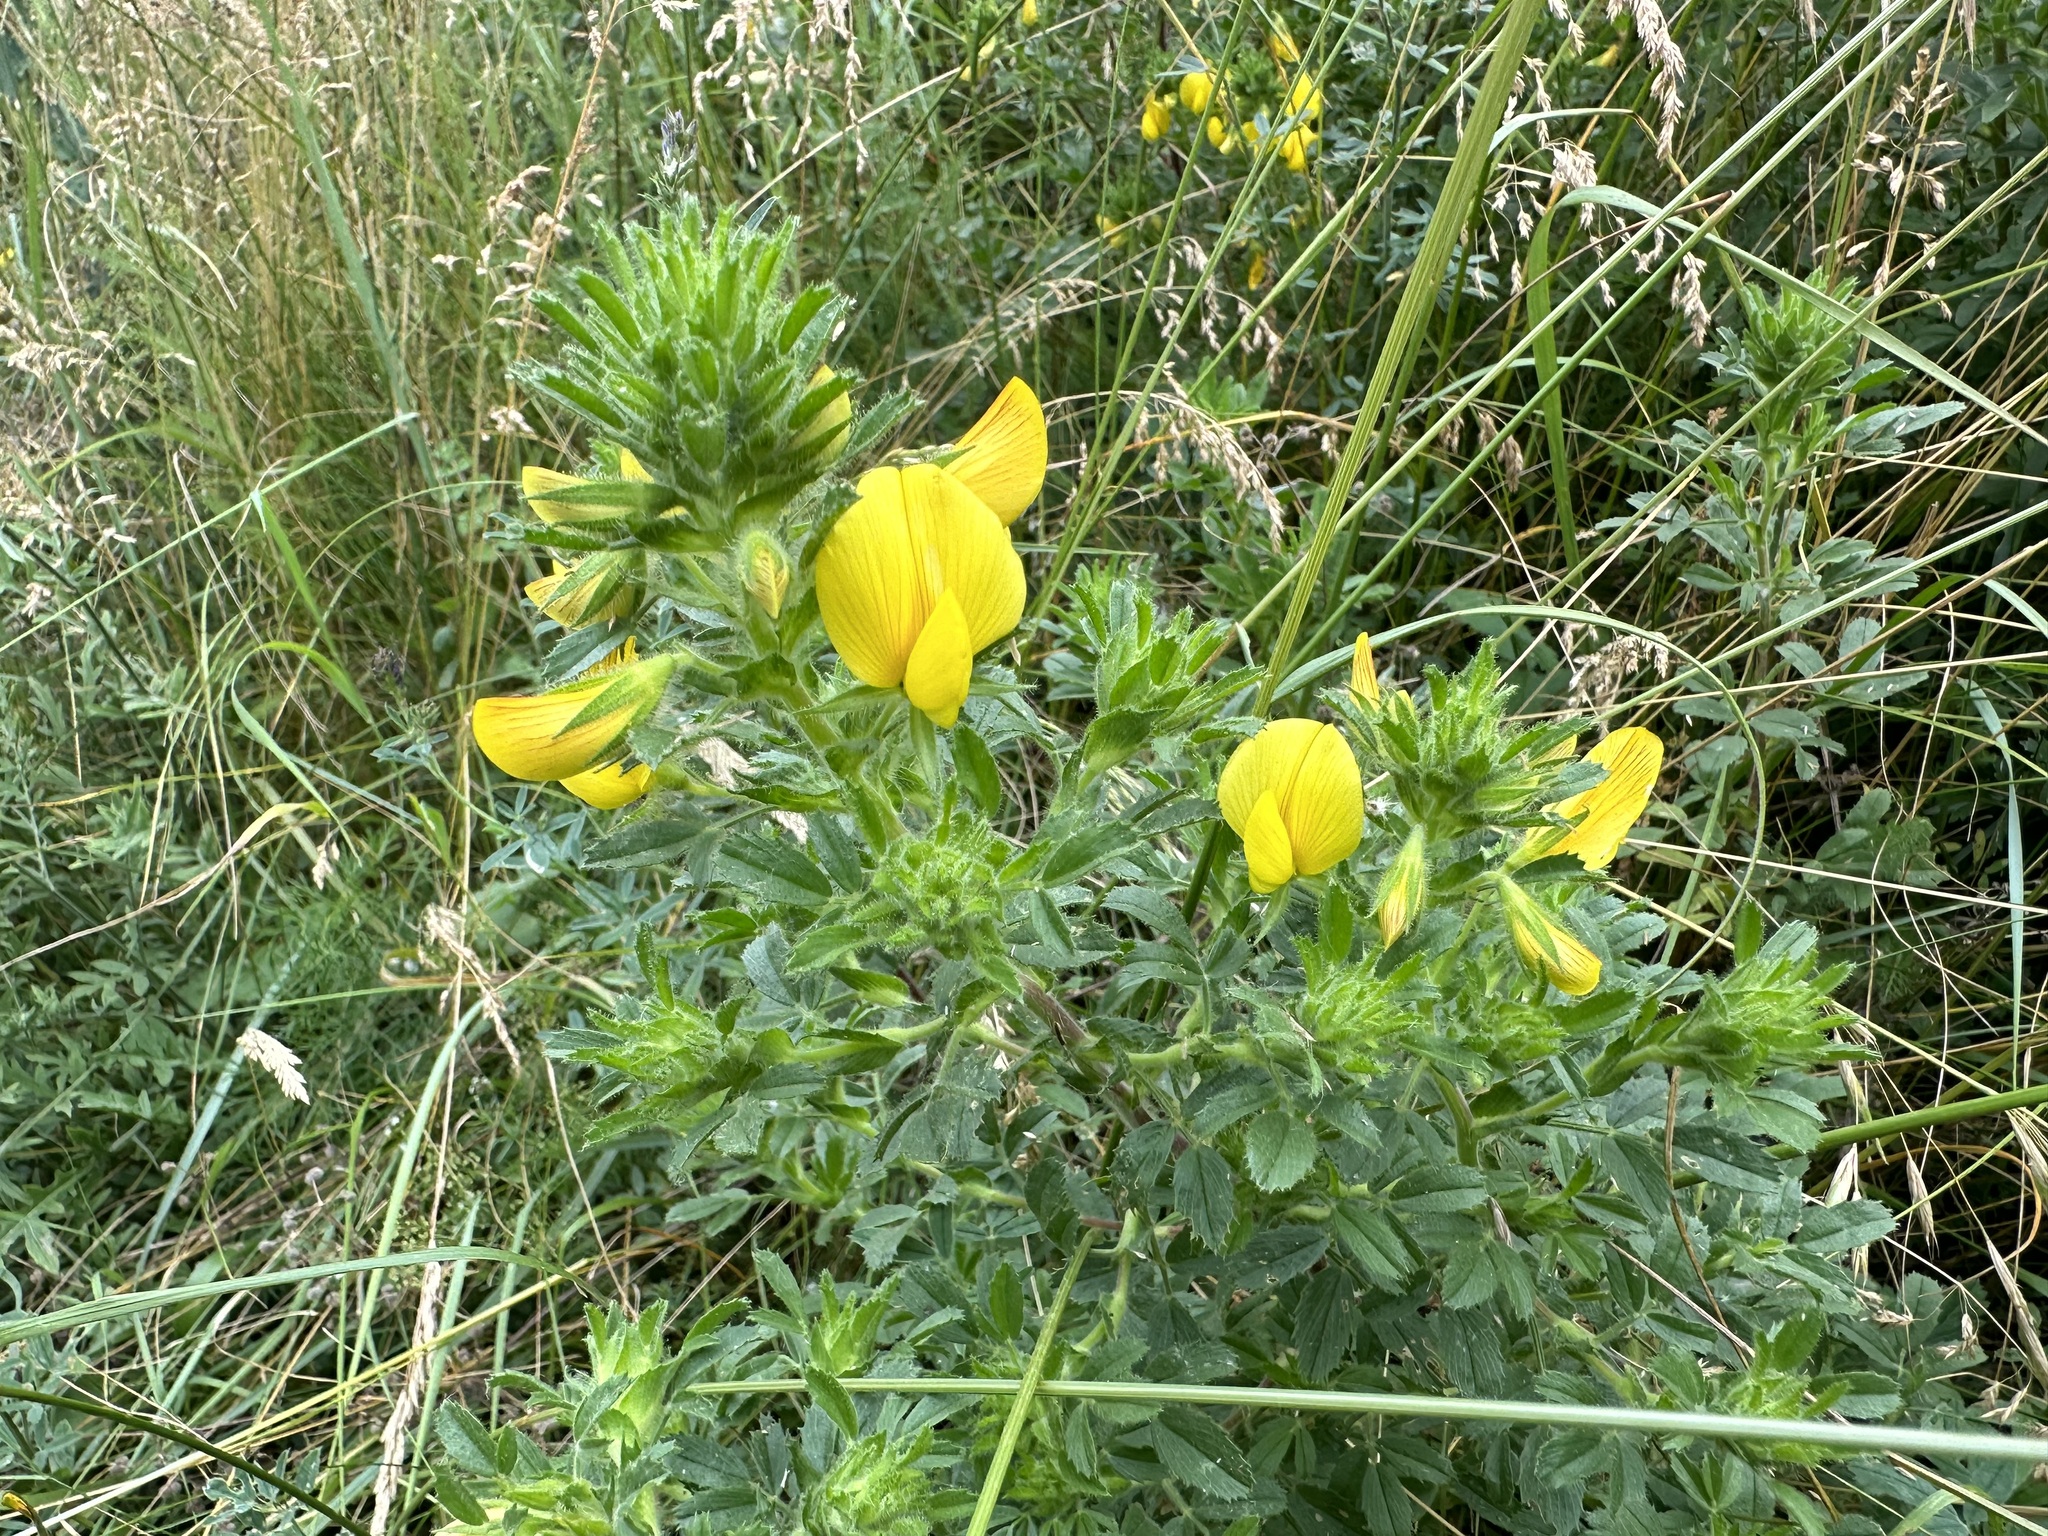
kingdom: Plantae
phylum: Tracheophyta
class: Magnoliopsida
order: Fabales
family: Fabaceae
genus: Ononis
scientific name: Ononis natrix
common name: Yellow restharrow
